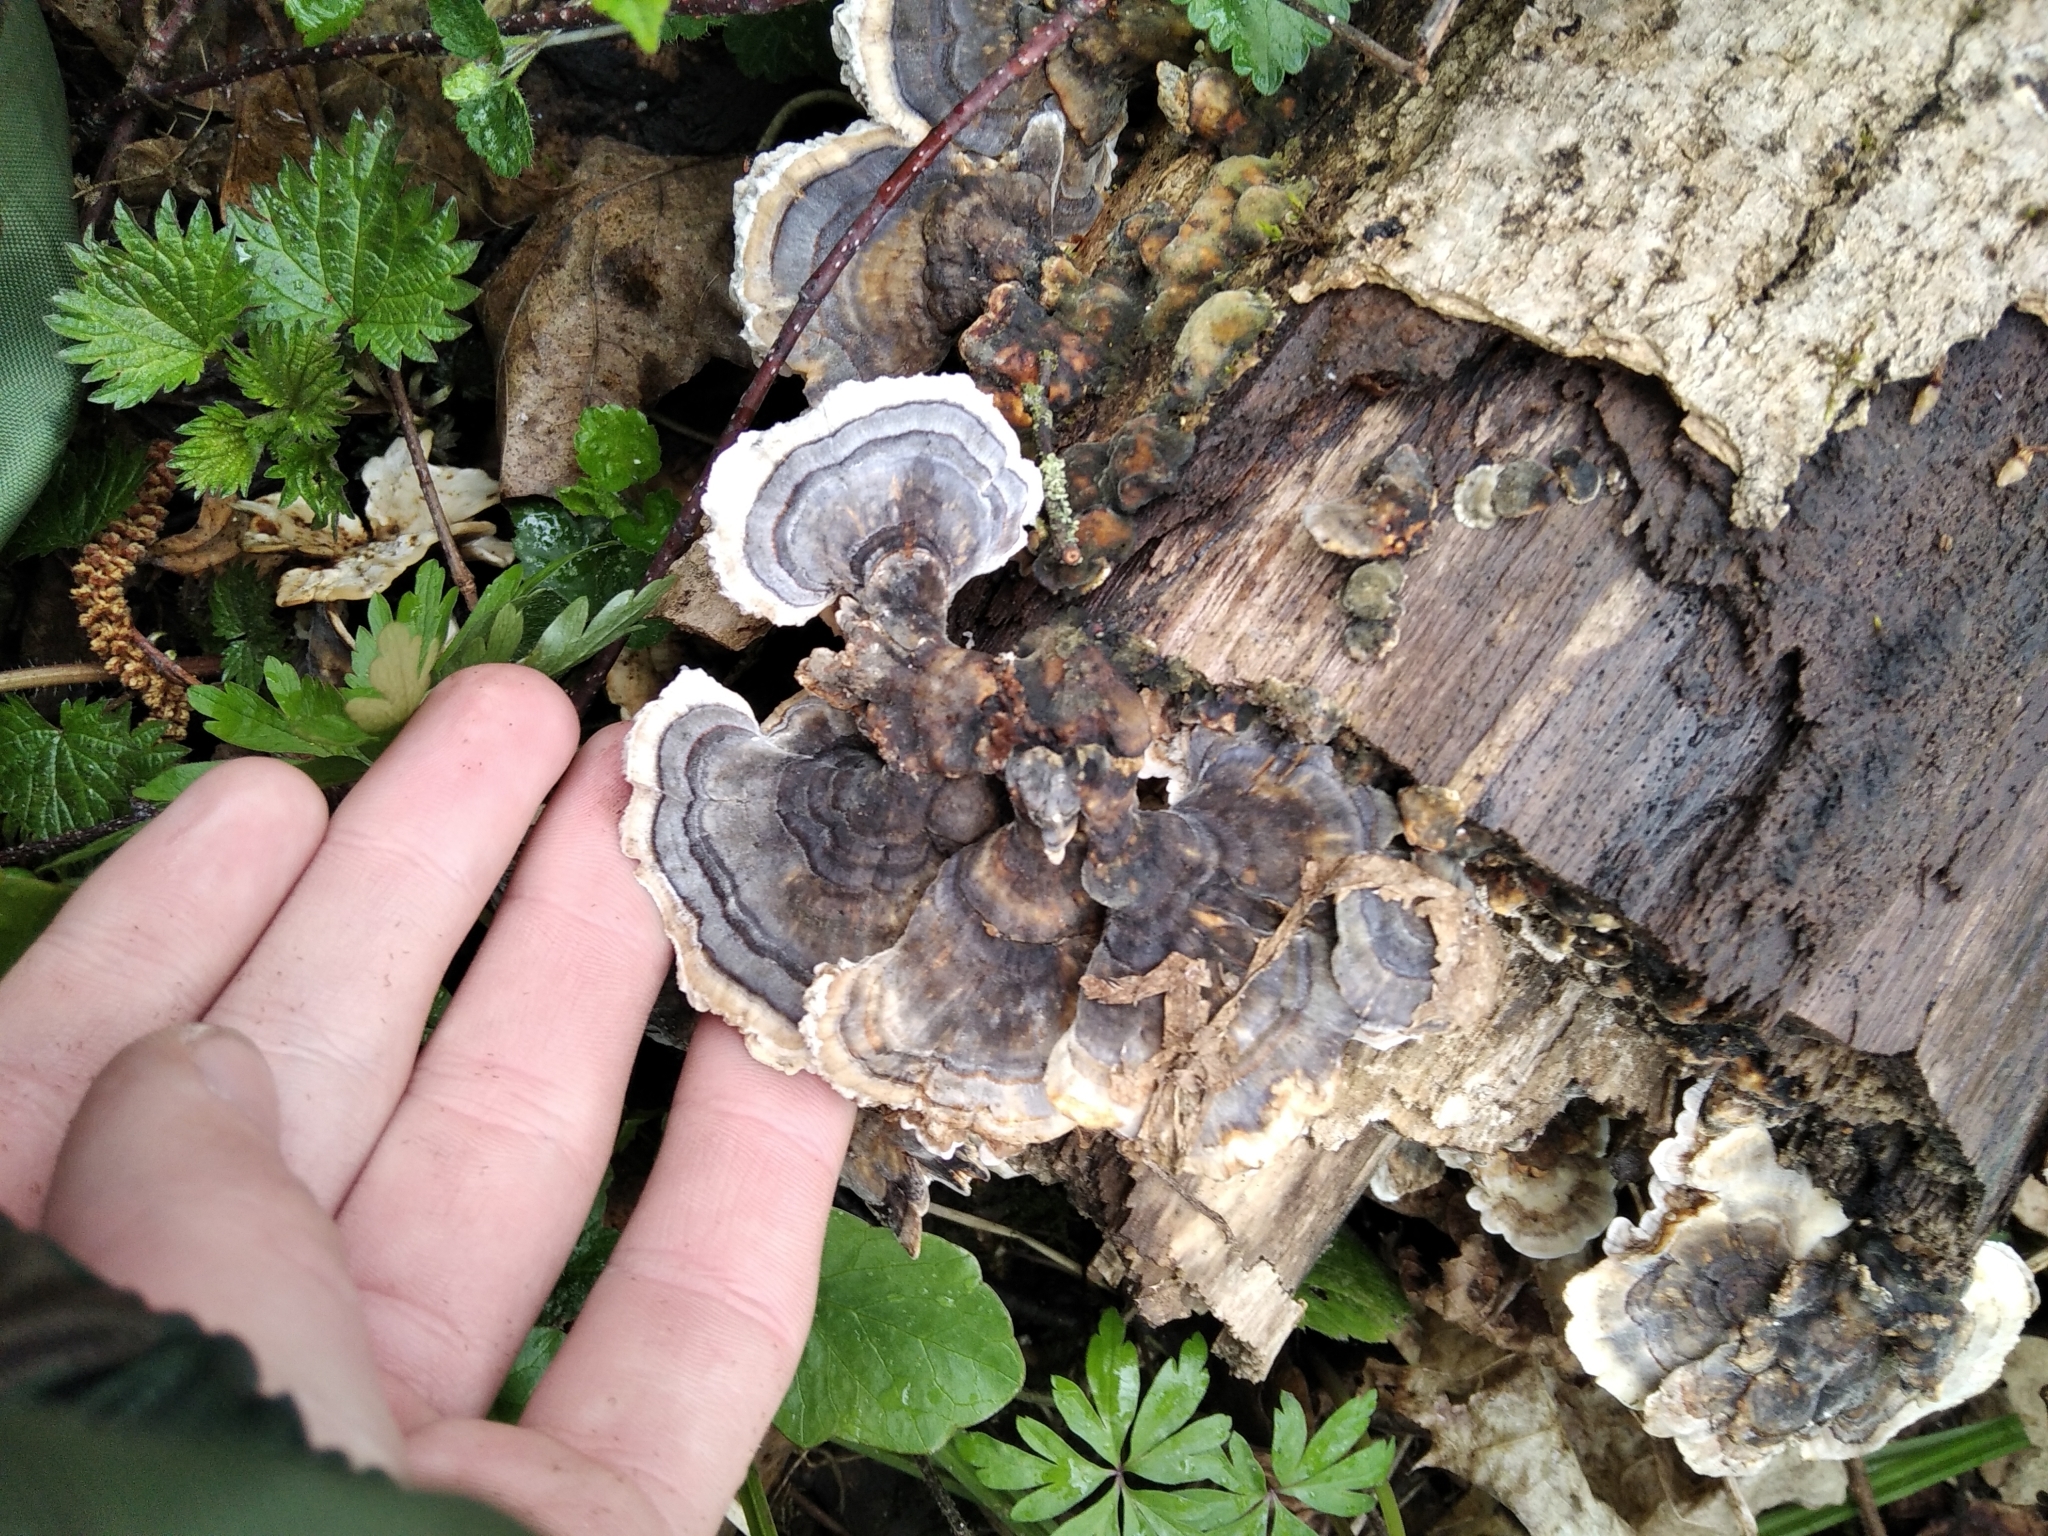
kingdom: Fungi
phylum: Basidiomycota
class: Agaricomycetes
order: Polyporales
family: Polyporaceae
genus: Trametes
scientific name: Trametes versicolor
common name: Turkeytail
